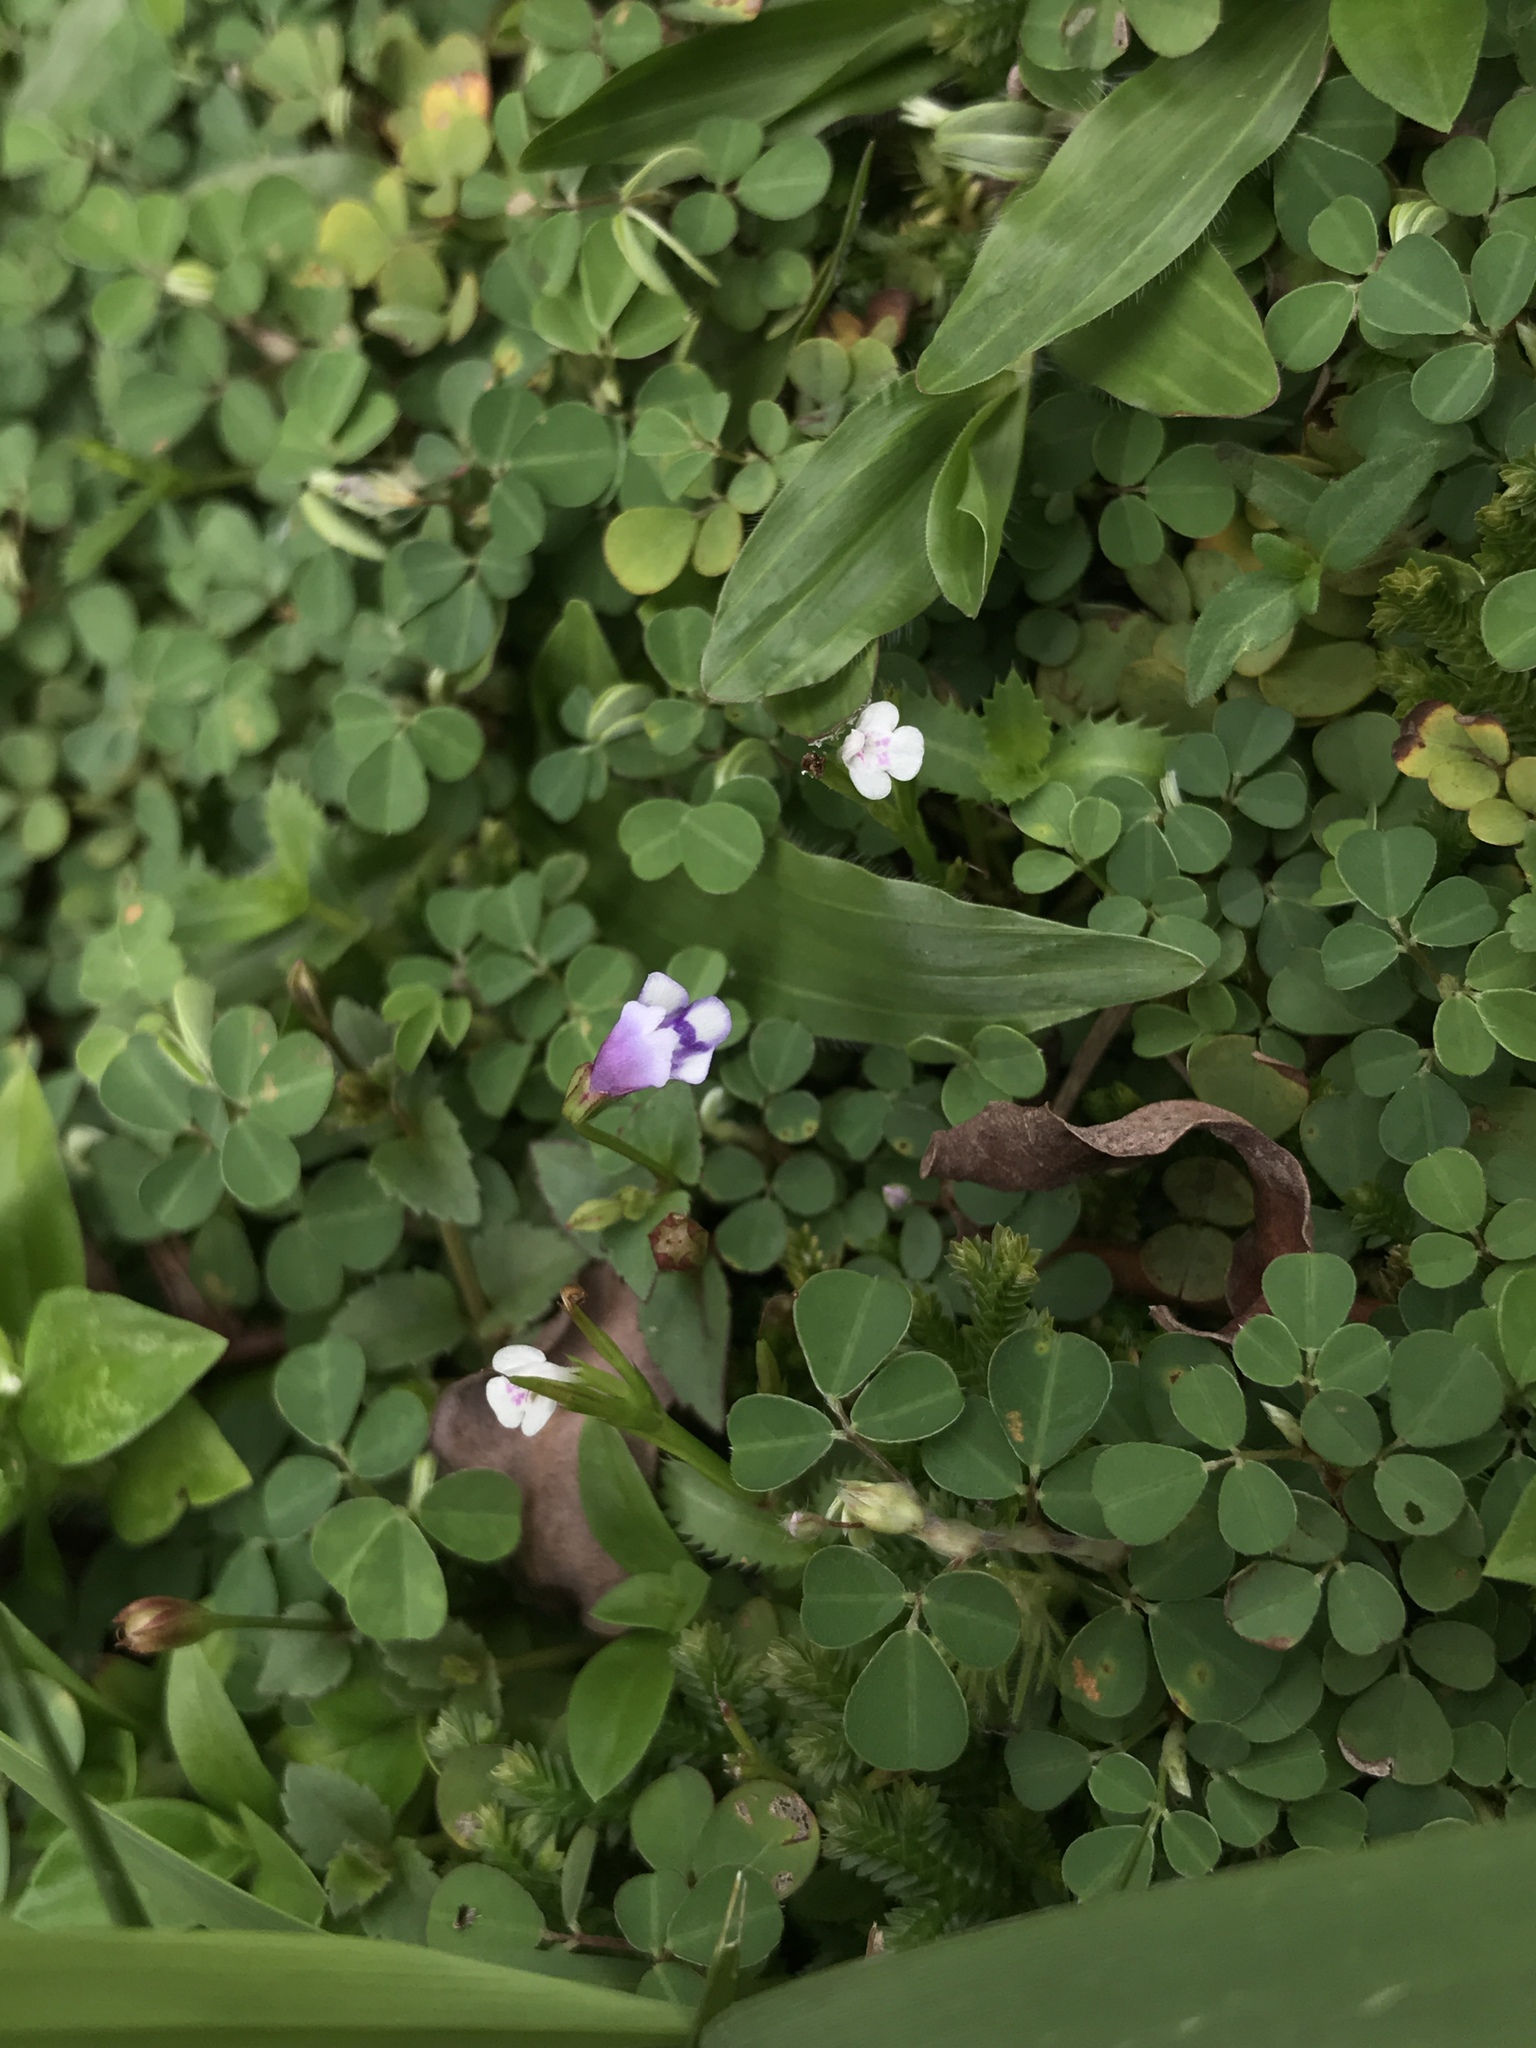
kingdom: Plantae
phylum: Tracheophyta
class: Magnoliopsida
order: Lamiales
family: Linderniaceae
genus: Torenia
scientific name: Torenia crustacea
